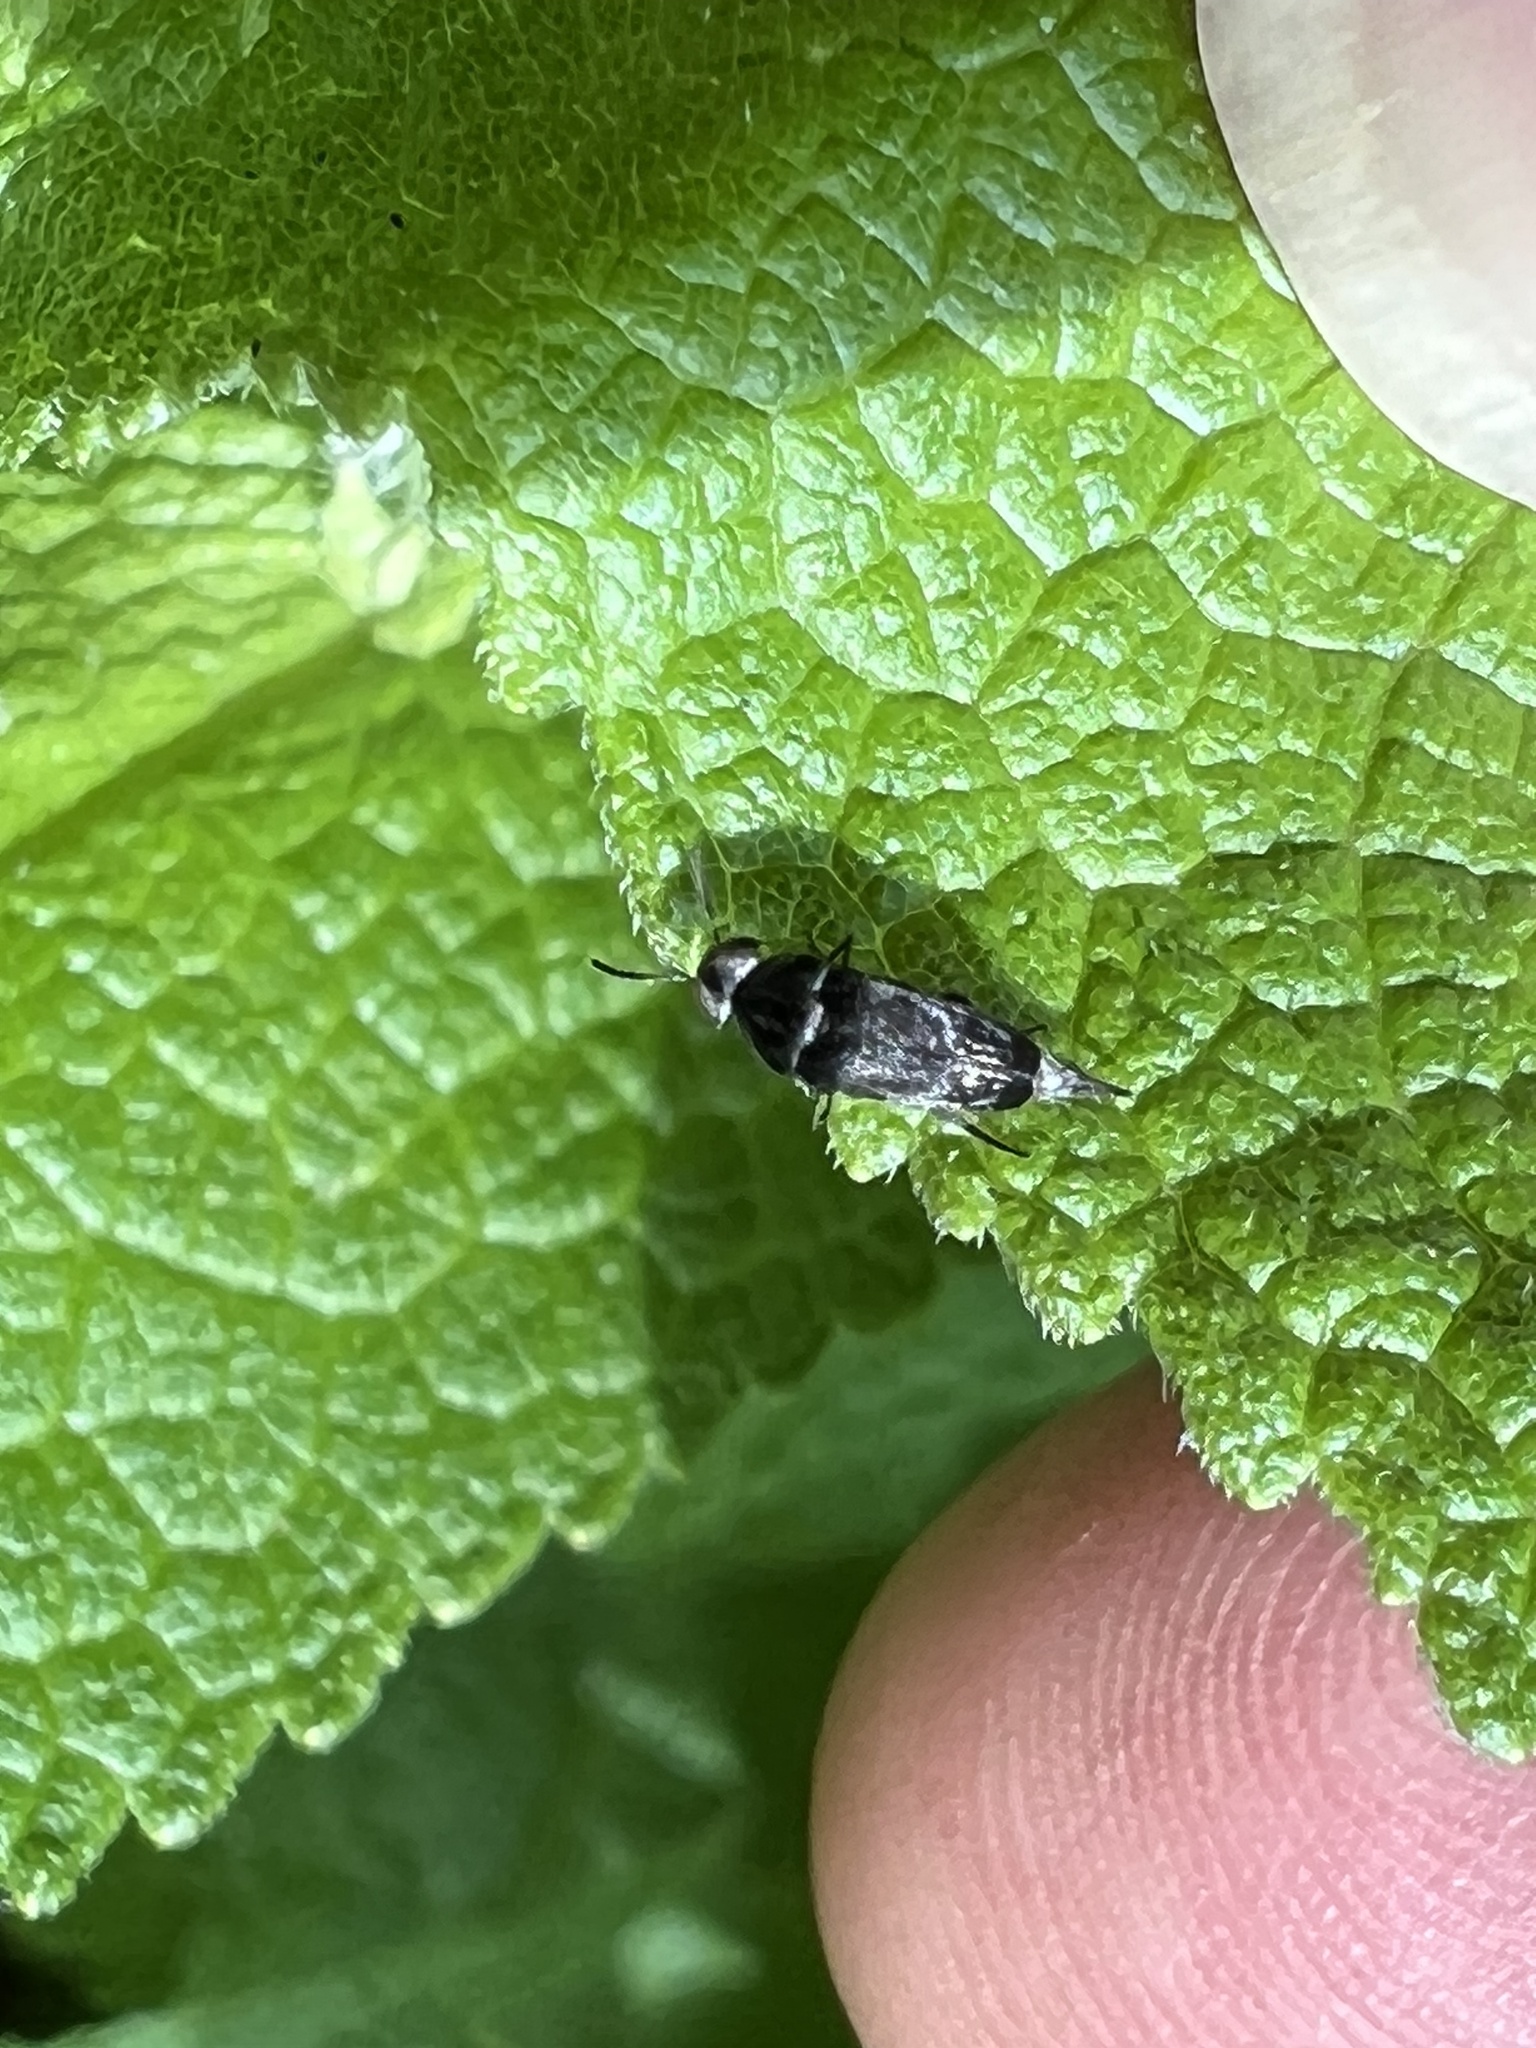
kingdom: Animalia
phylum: Arthropoda
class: Insecta
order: Coleoptera
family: Mordellidae
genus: Mordella
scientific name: Mordella marginata
